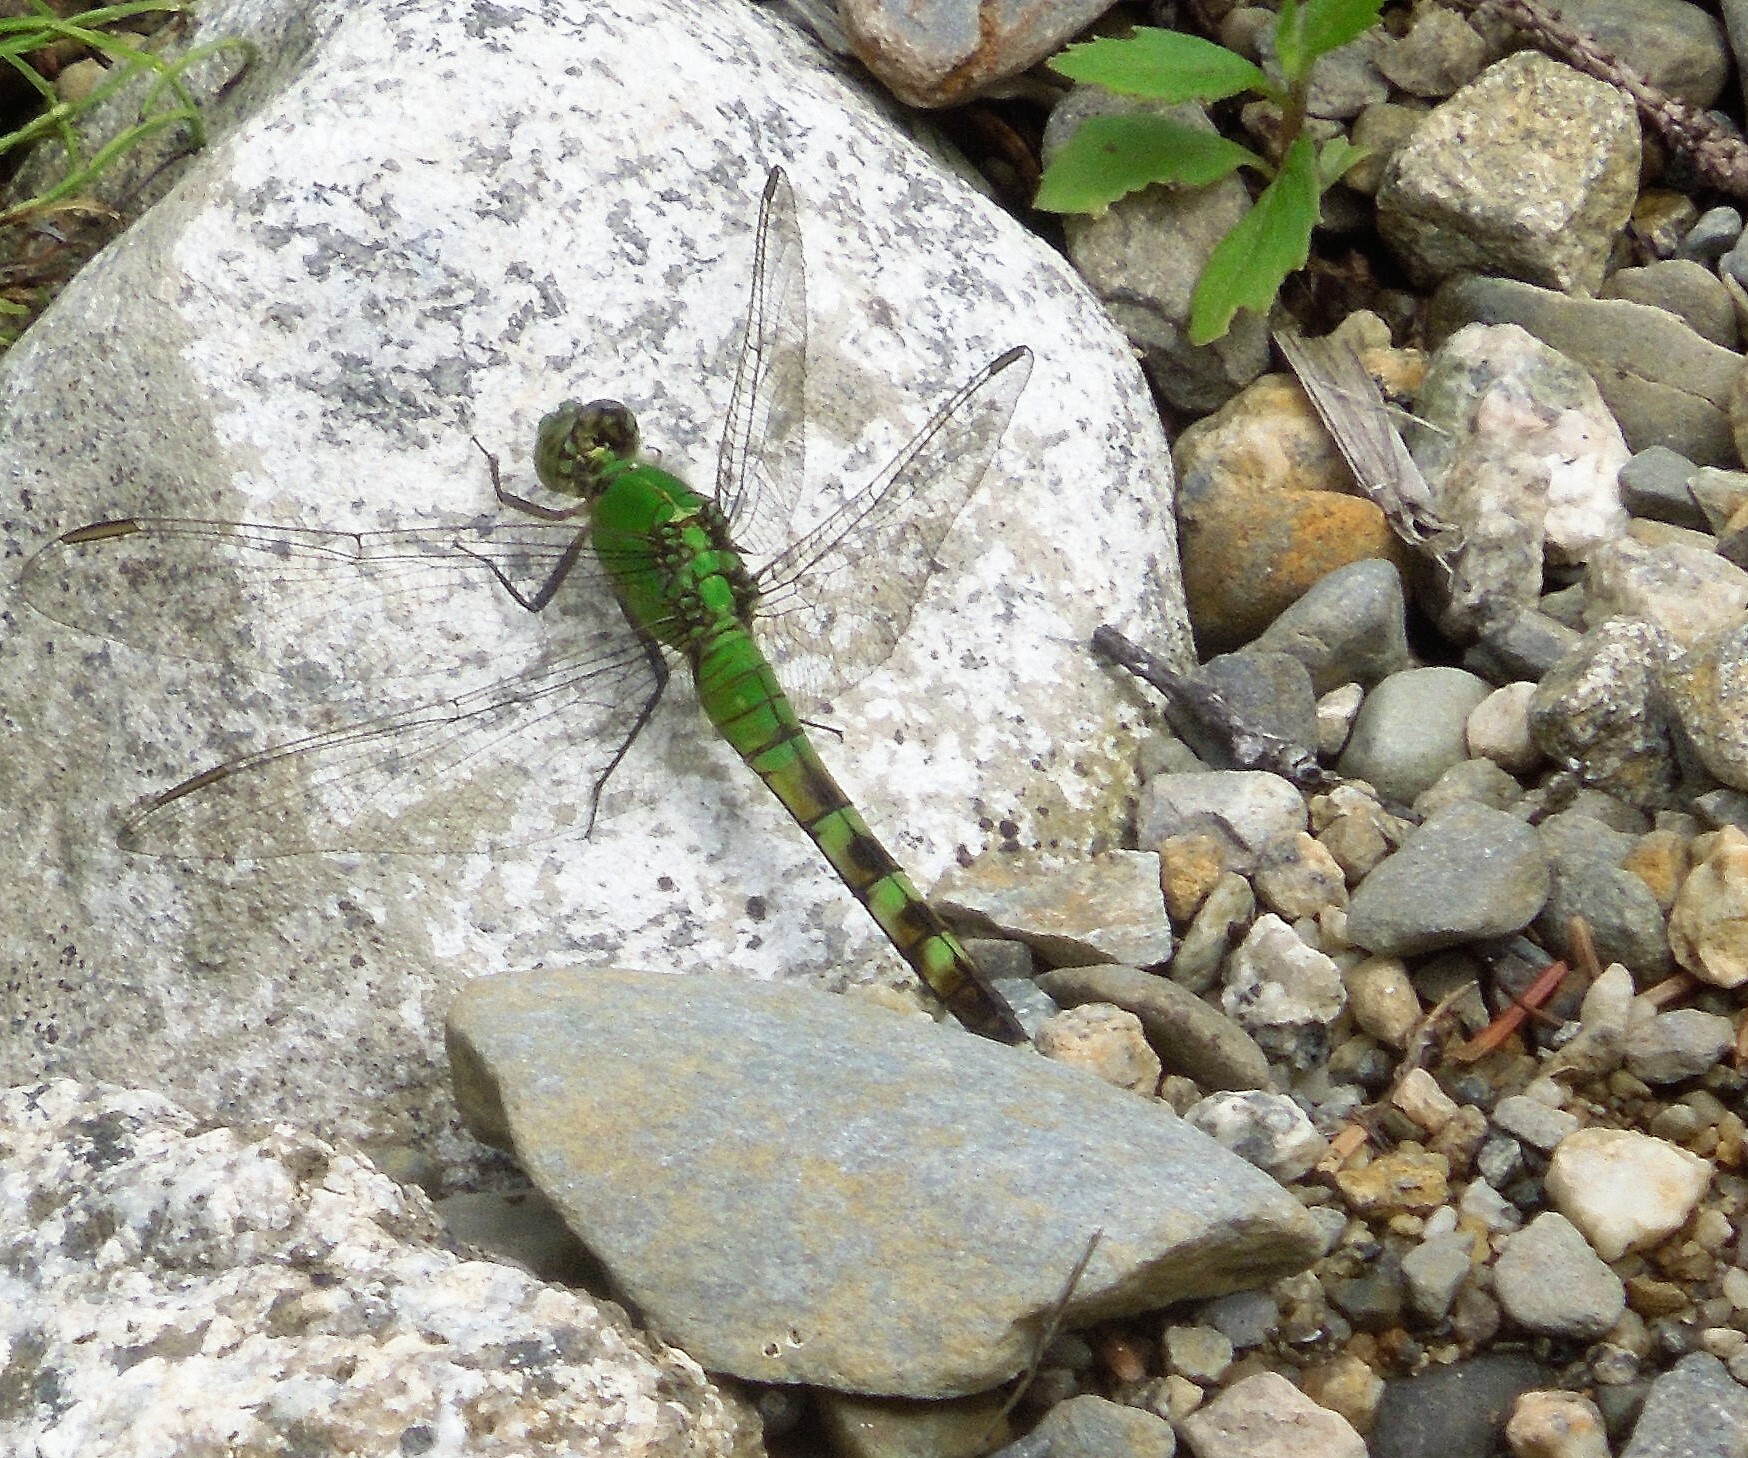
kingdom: Animalia
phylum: Arthropoda
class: Insecta
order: Odonata
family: Libellulidae
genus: Erythemis
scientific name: Erythemis simplicicollis
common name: Eastern pondhawk
